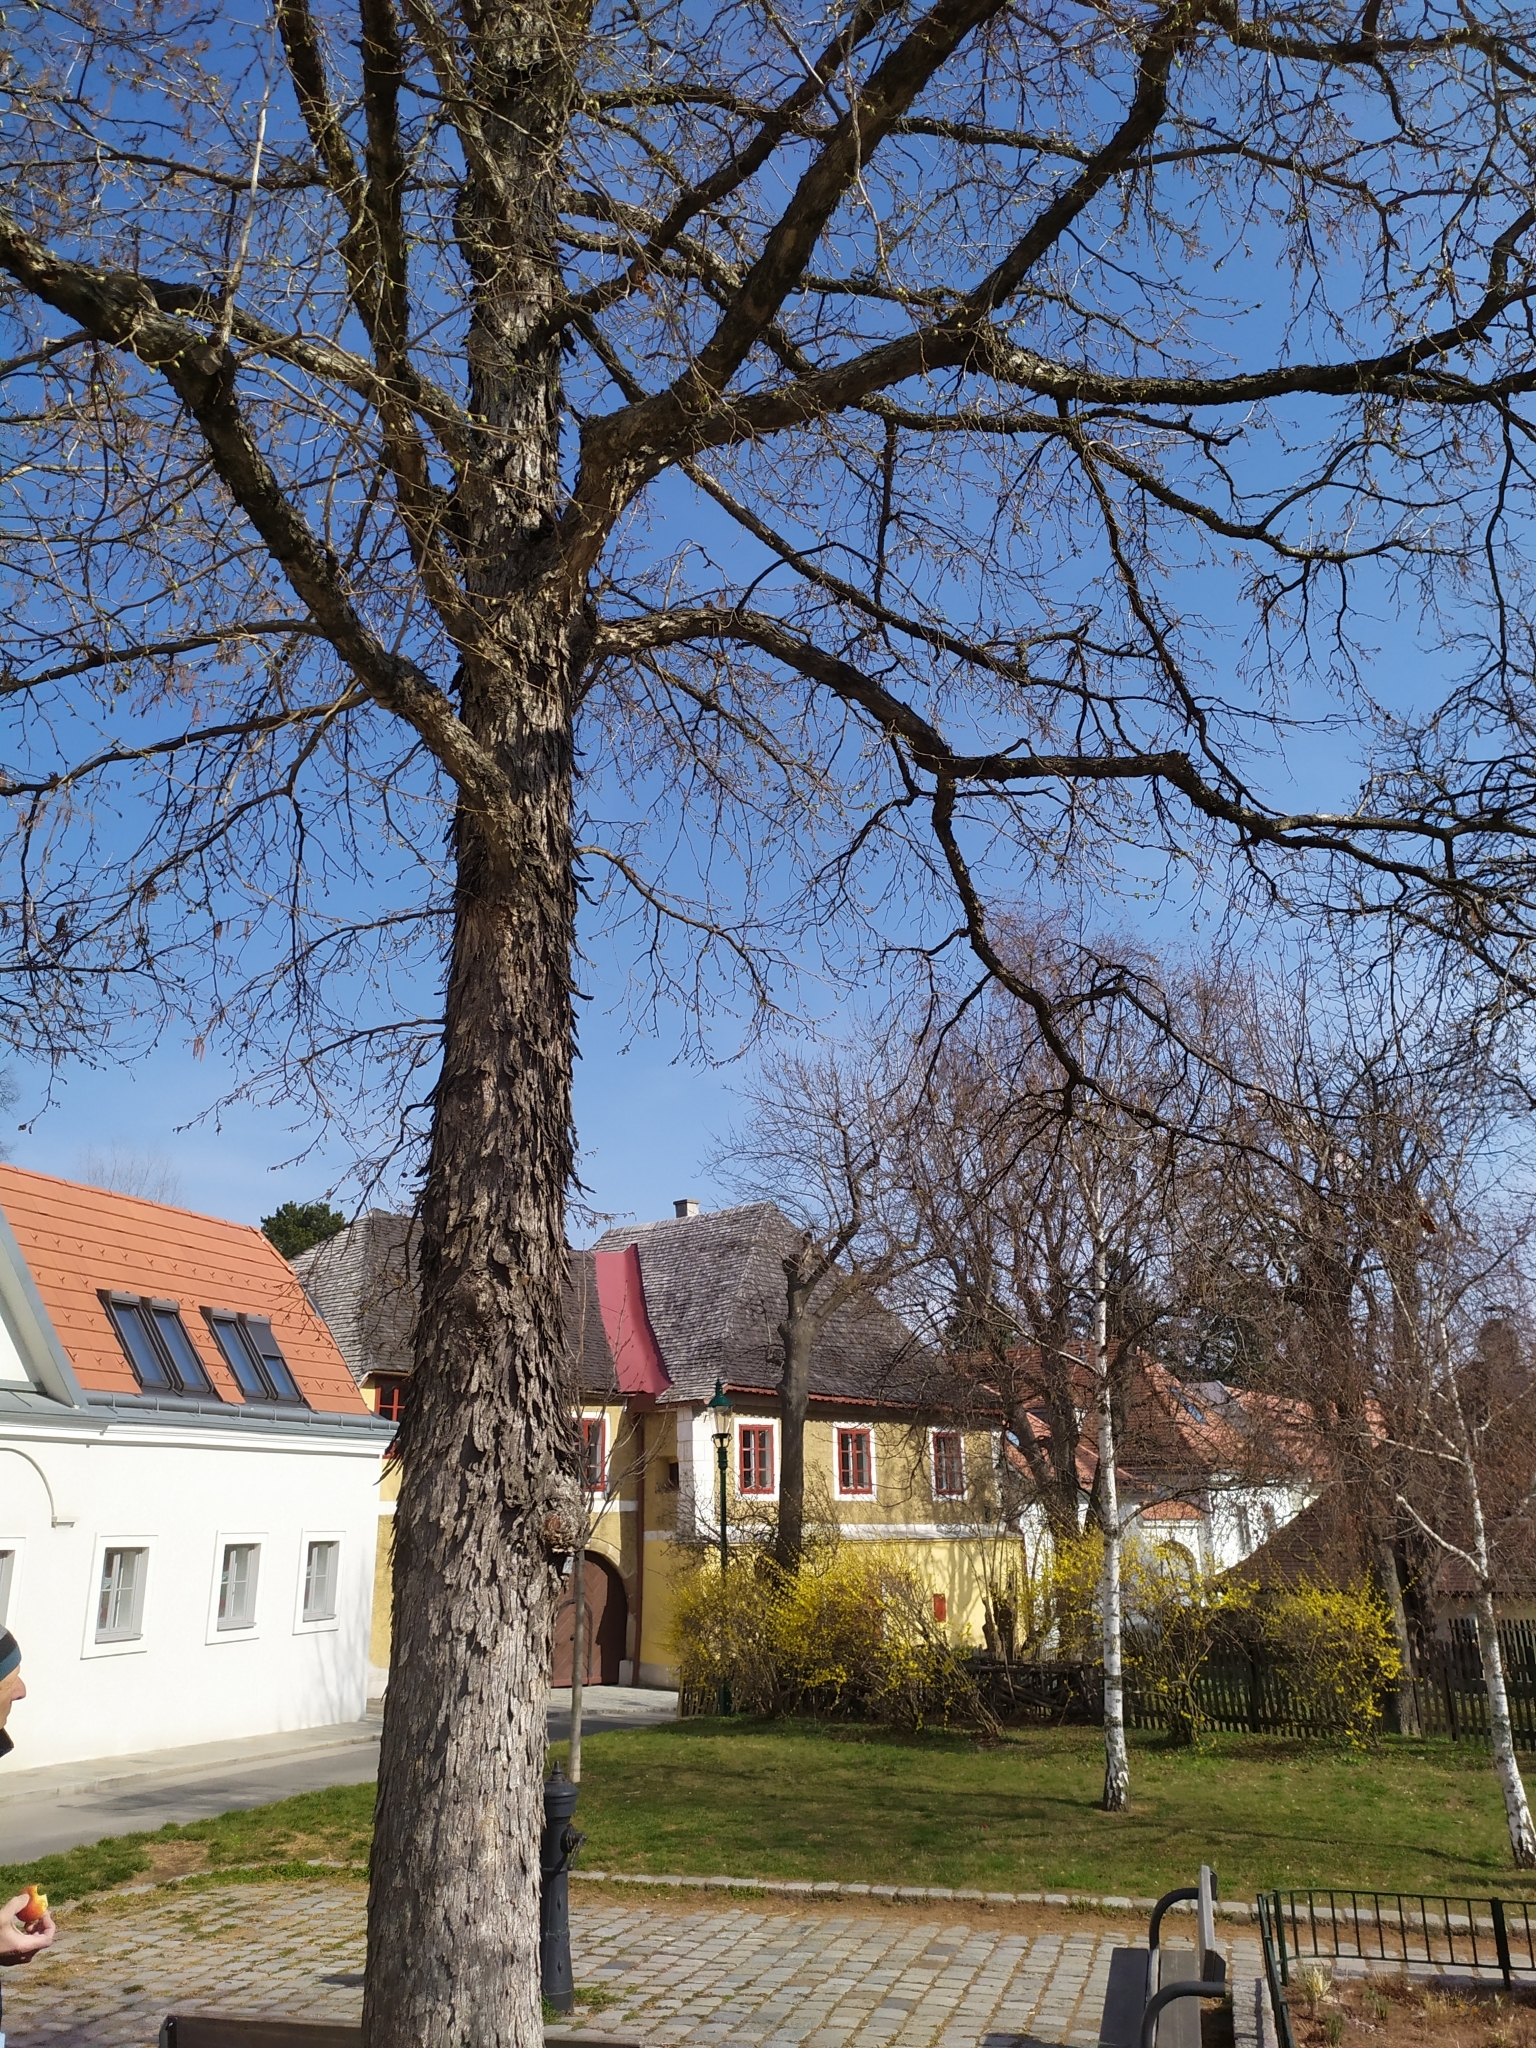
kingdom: Animalia
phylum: Arthropoda
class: Arachnida
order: Trombidiformes
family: Phytoptidae
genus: Phytoptus
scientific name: Phytoptus avellanae
